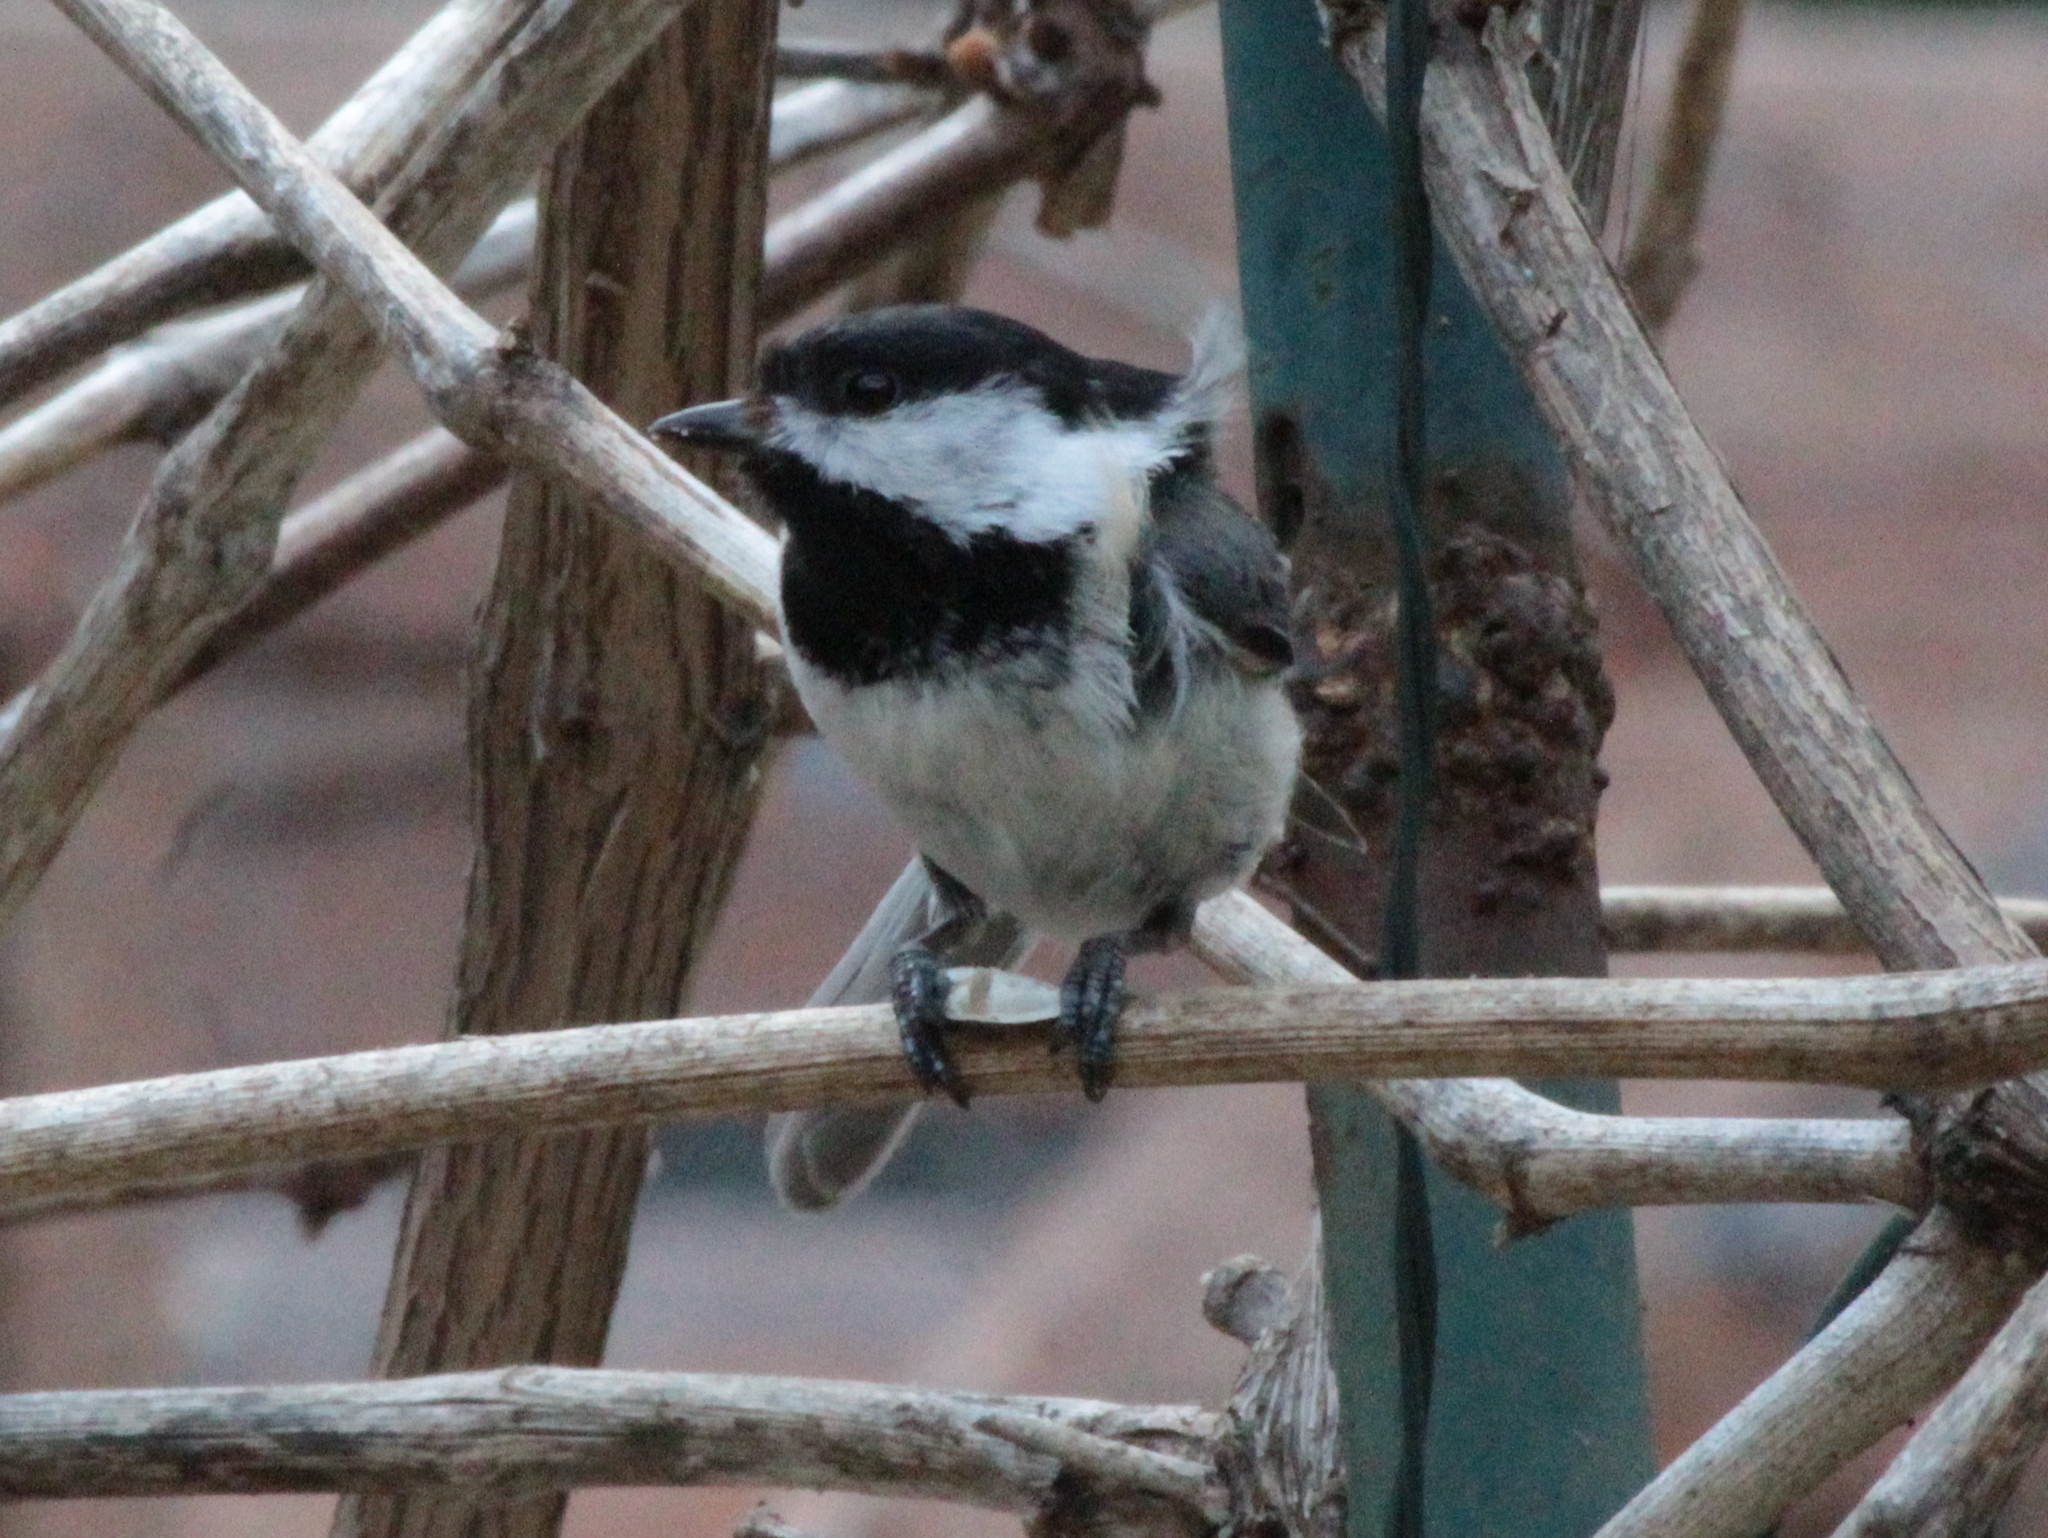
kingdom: Animalia
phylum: Chordata
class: Aves
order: Passeriformes
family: Paridae
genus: Poecile
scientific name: Poecile atricapillus
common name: Black-capped chickadee
